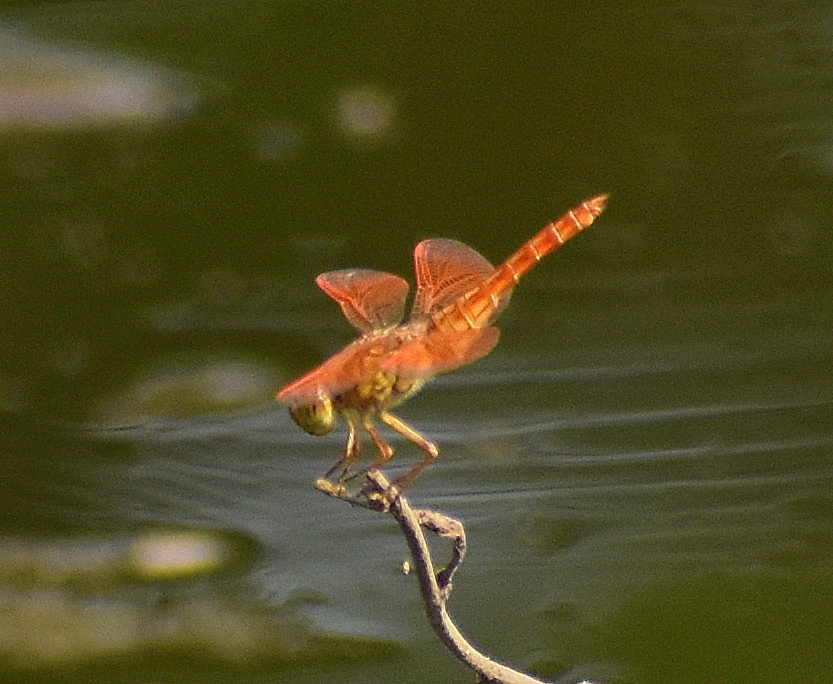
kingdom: Animalia
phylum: Arthropoda
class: Insecta
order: Odonata
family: Libellulidae
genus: Brachythemis
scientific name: Brachythemis contaminata
